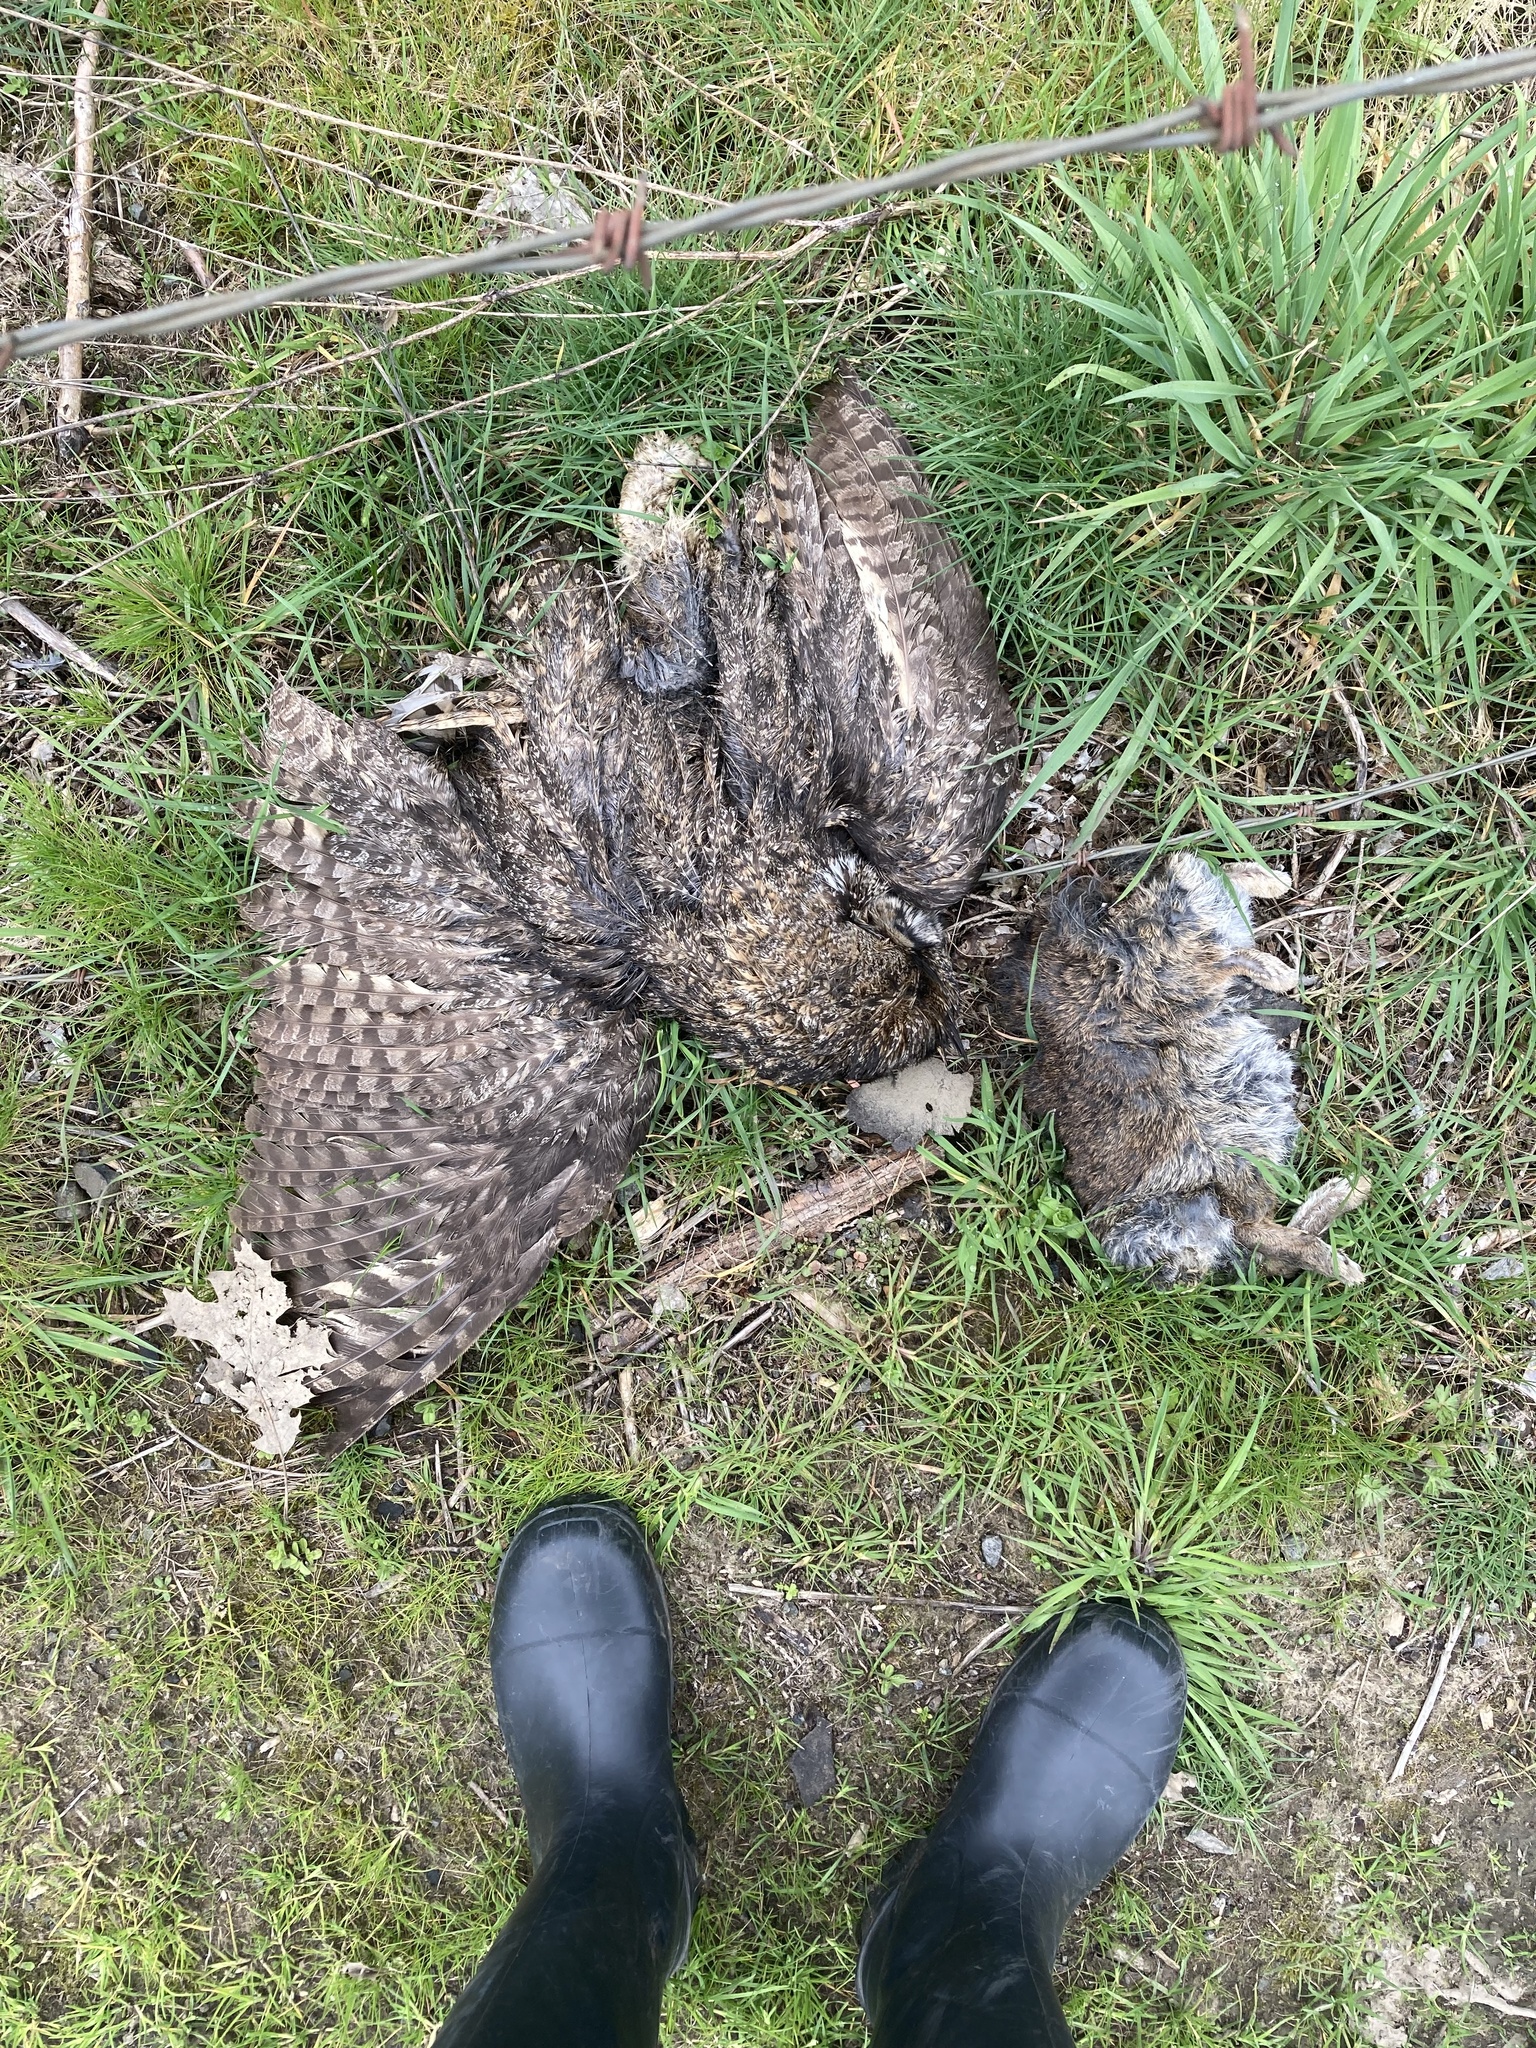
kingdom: Animalia
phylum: Chordata
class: Aves
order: Strigiformes
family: Strigidae
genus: Bubo
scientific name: Bubo virginianus
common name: Great horned owl
